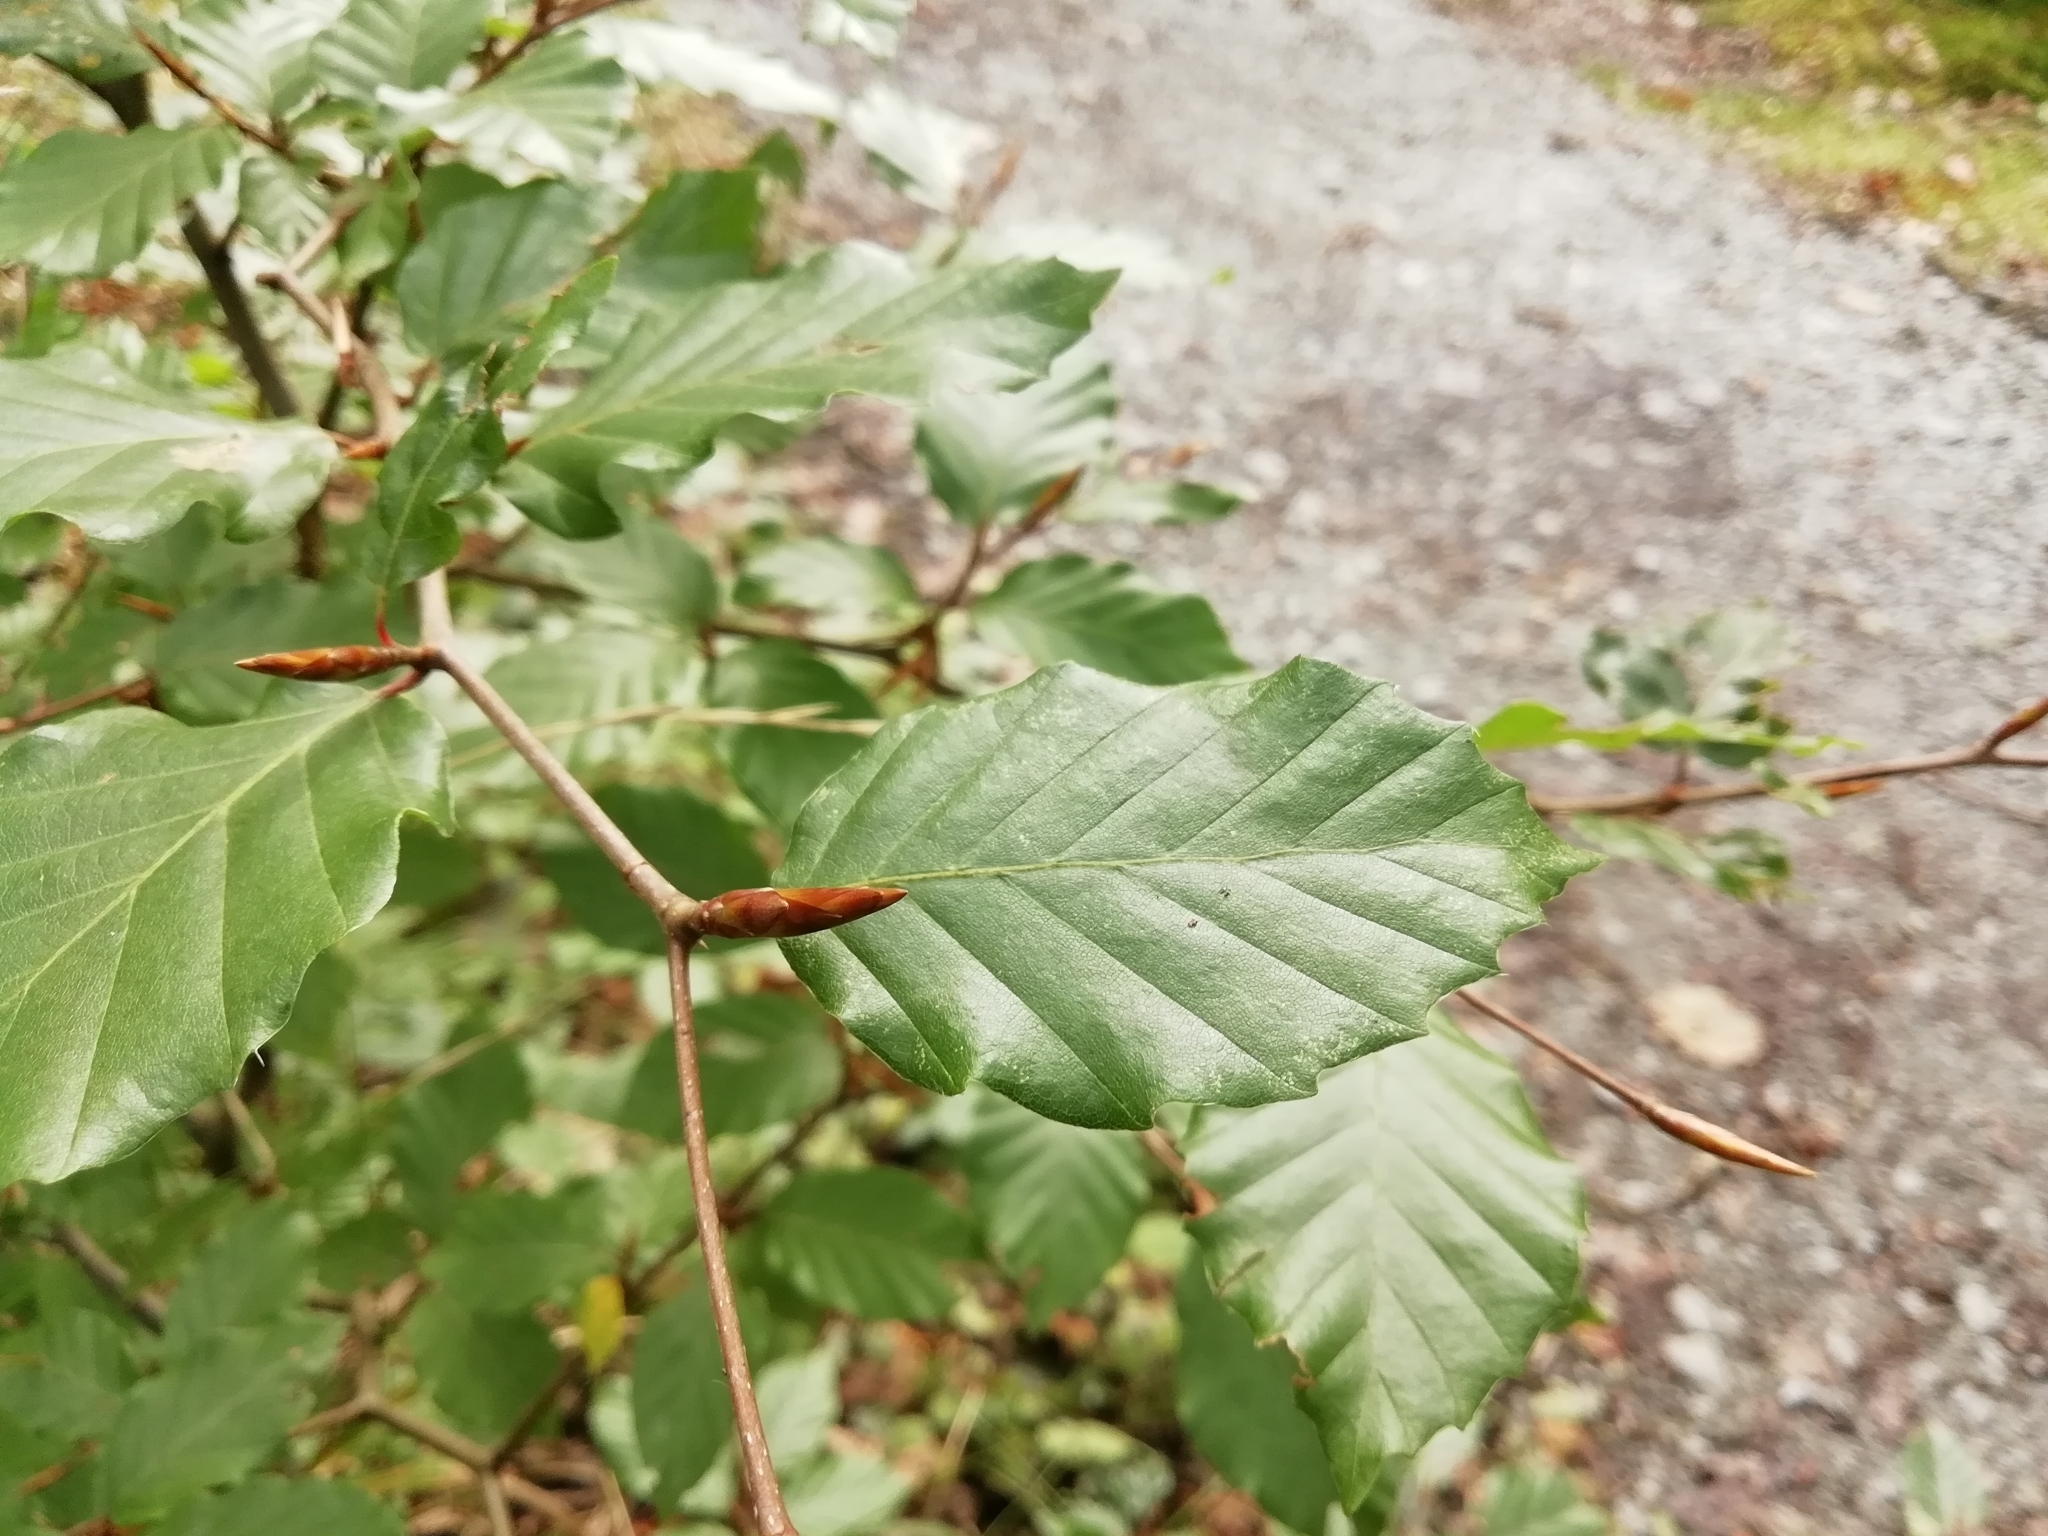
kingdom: Plantae
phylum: Tracheophyta
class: Magnoliopsida
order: Fagales
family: Fagaceae
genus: Fagus
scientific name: Fagus sylvatica
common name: Beech
